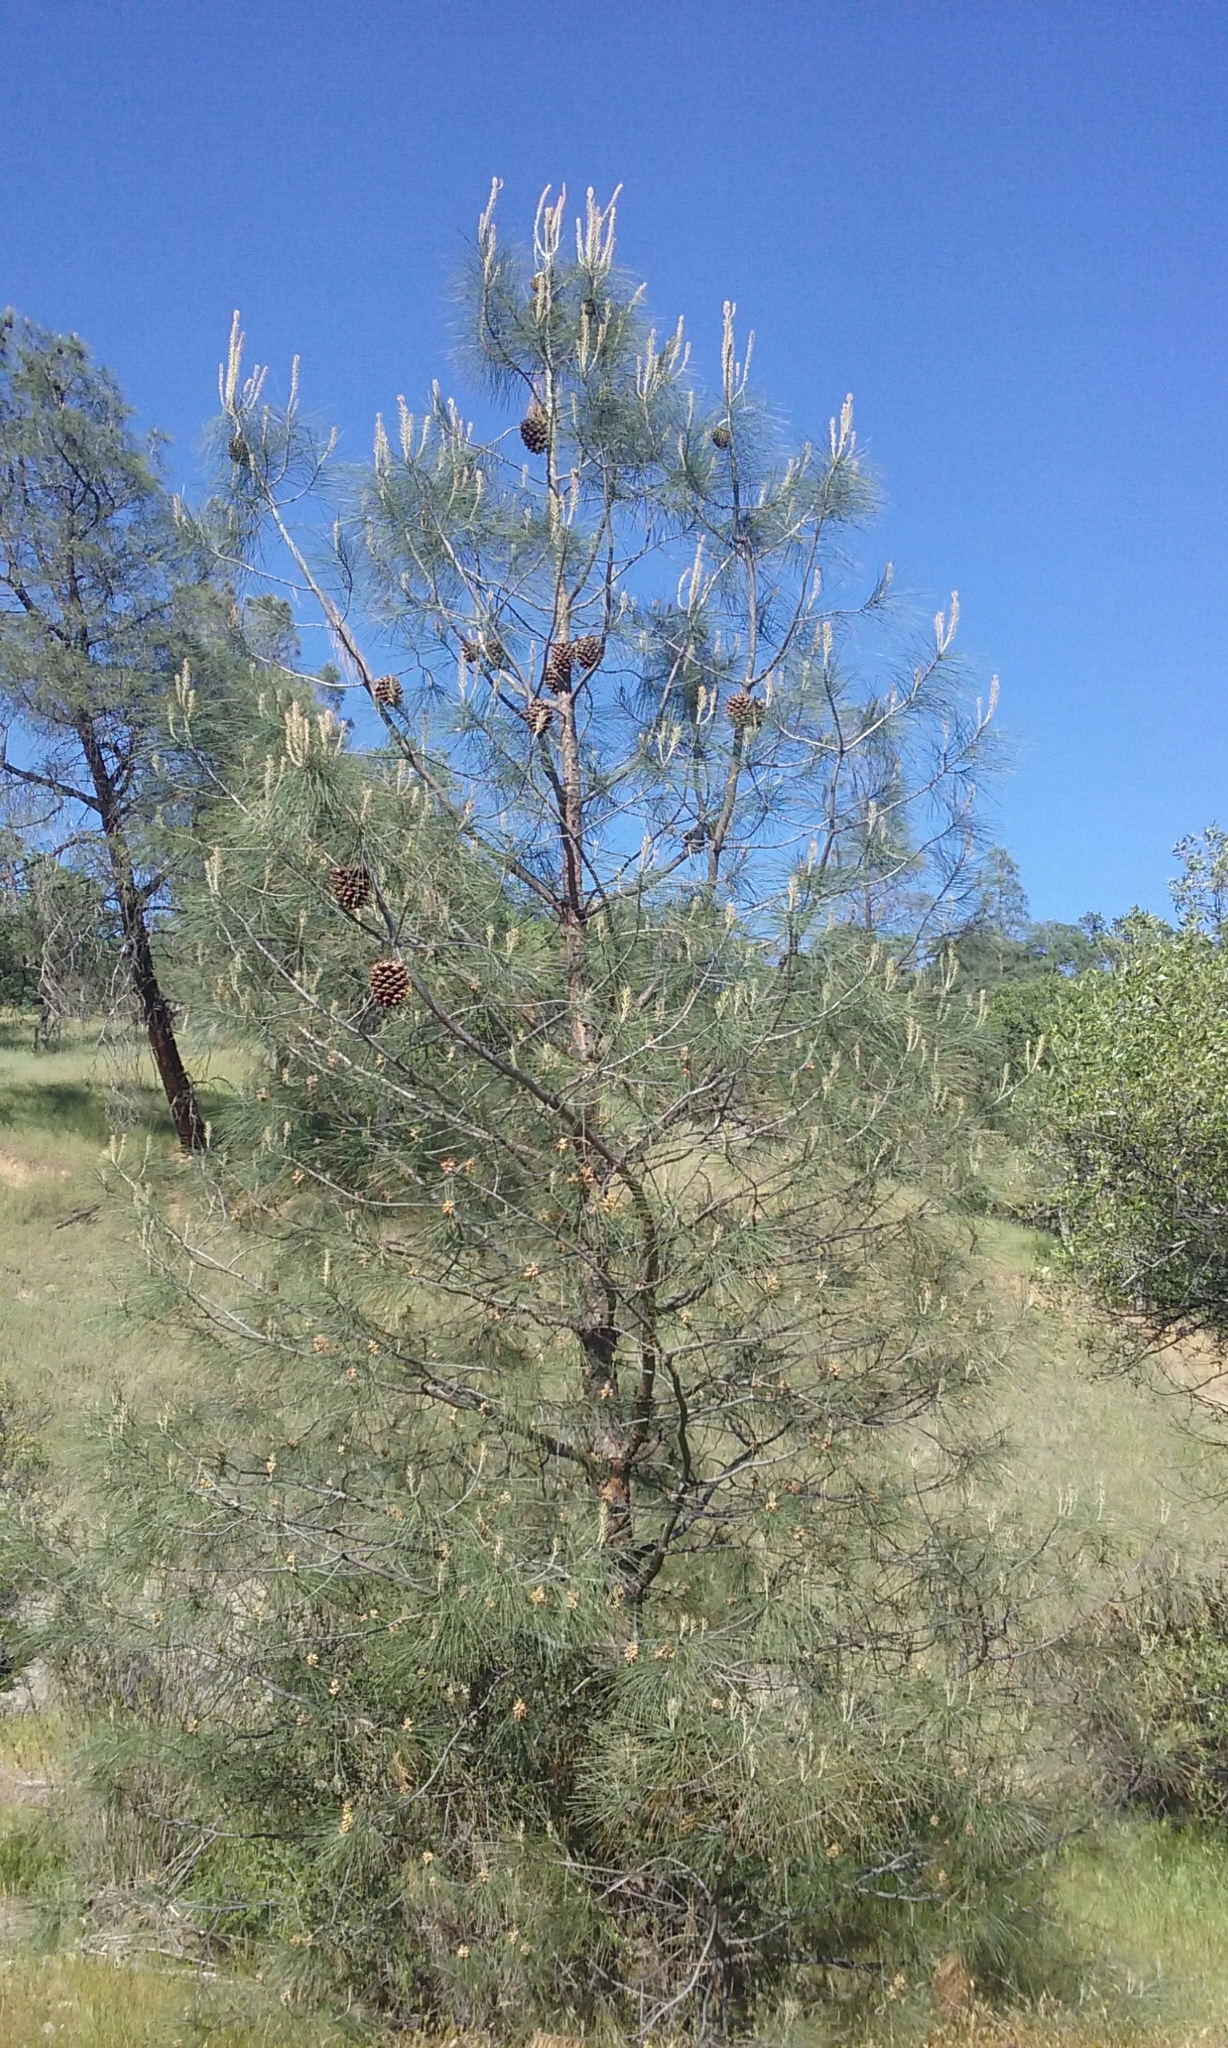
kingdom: Plantae
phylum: Tracheophyta
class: Pinopsida
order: Pinales
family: Pinaceae
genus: Pinus
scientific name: Pinus sabiniana
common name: Bull pine
